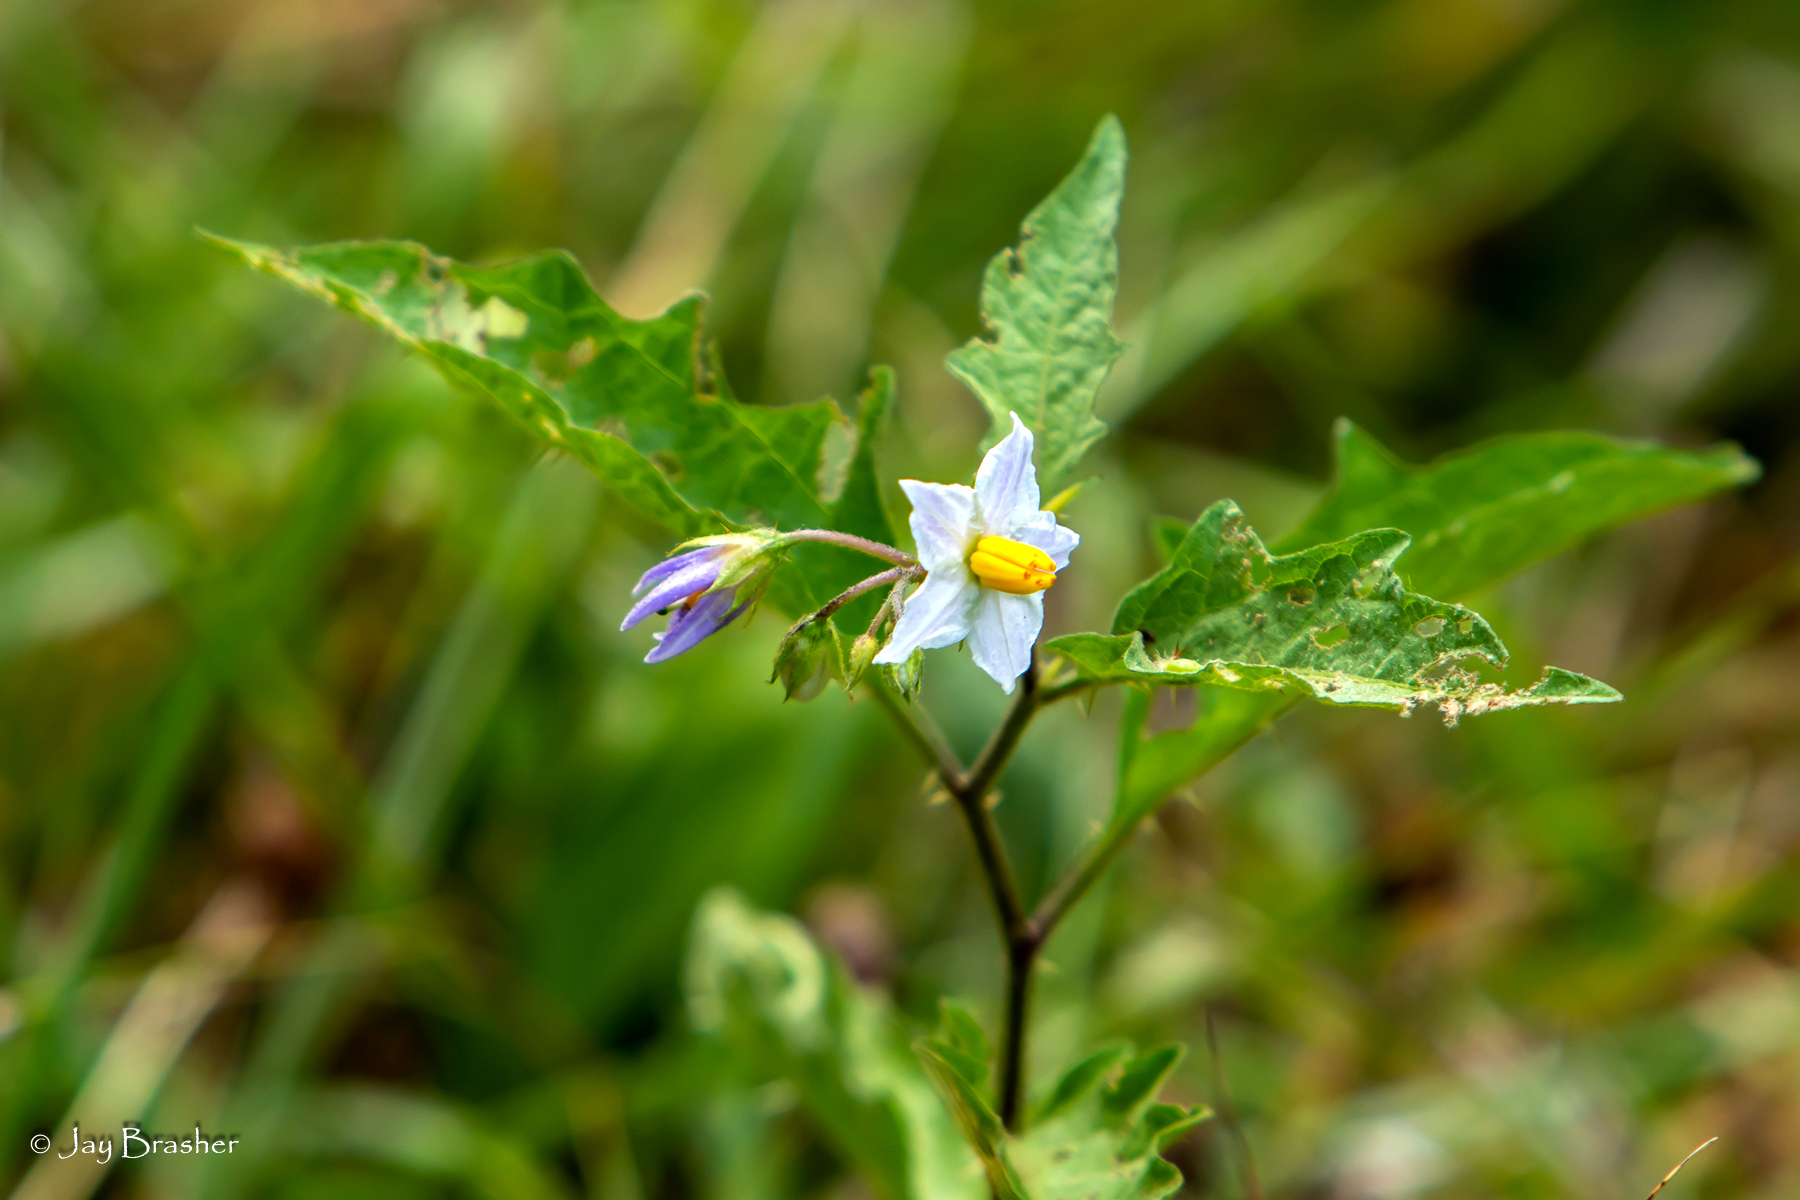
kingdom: Plantae
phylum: Tracheophyta
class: Magnoliopsida
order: Solanales
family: Solanaceae
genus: Solanum
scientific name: Solanum carolinense
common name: Horse-nettle
